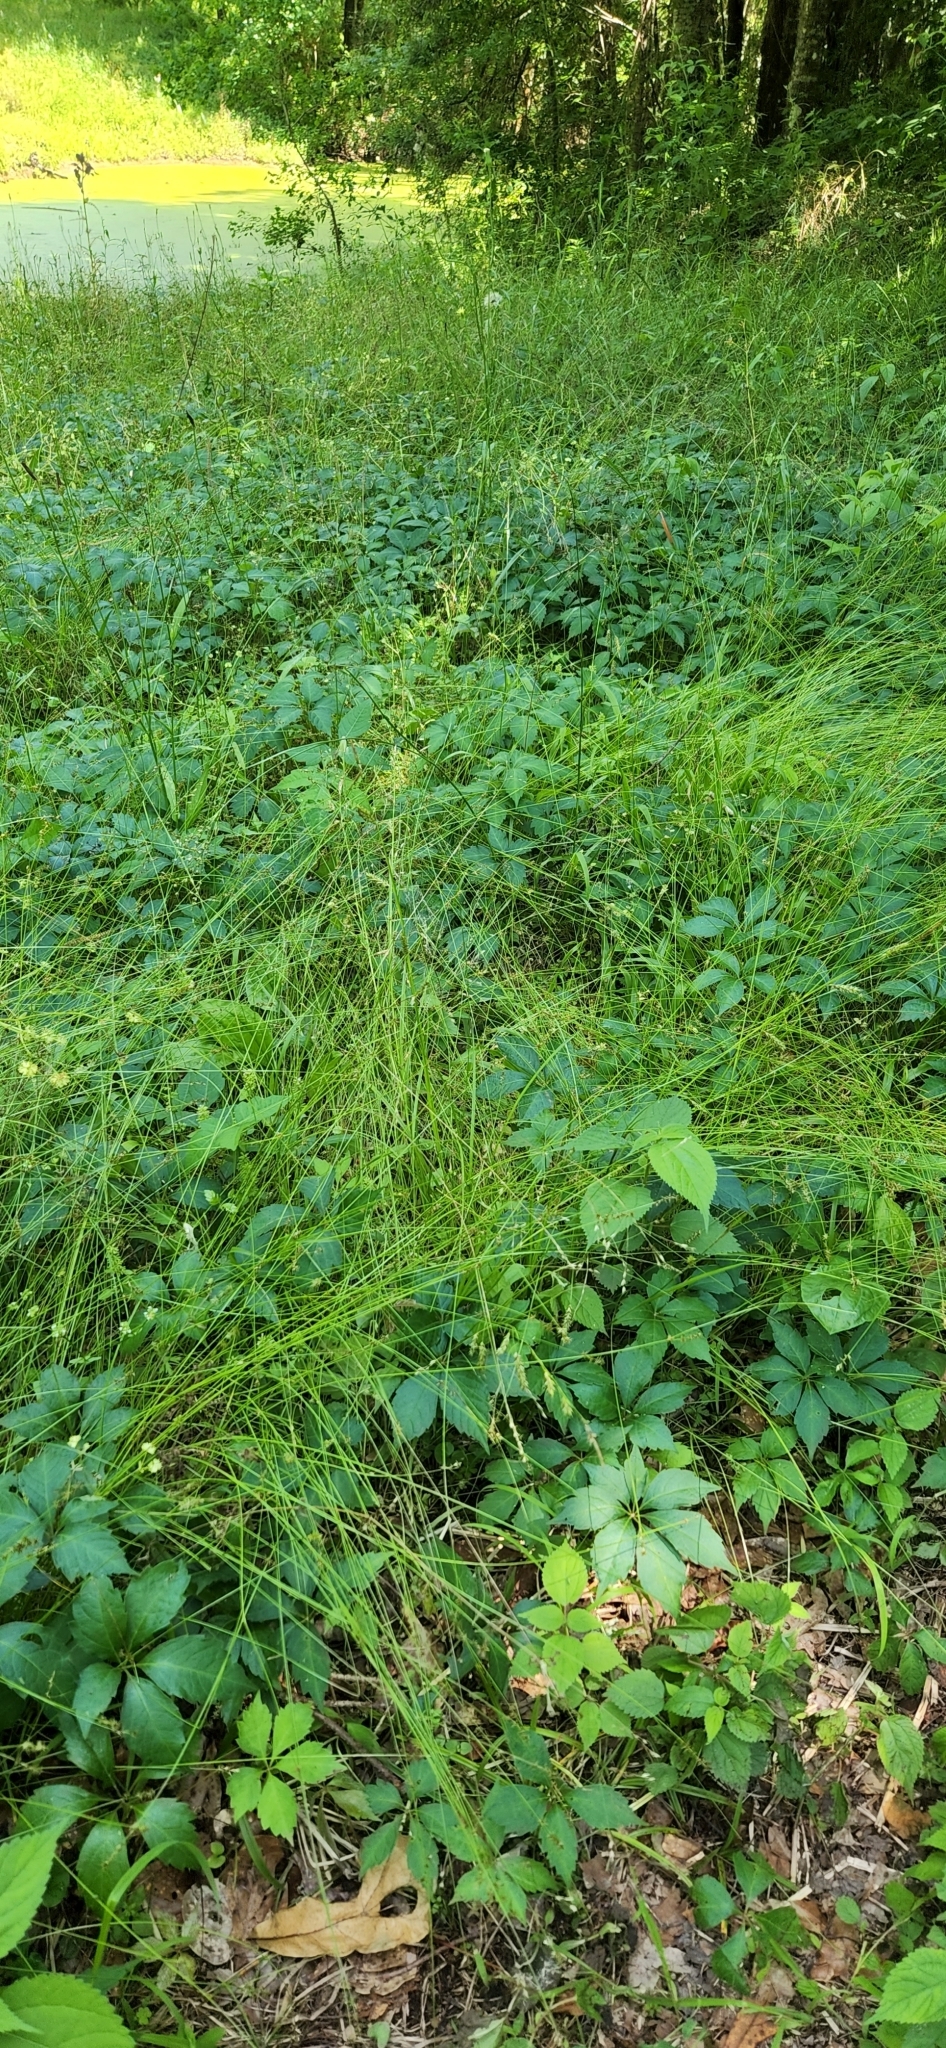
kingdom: Plantae
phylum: Tracheophyta
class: Magnoliopsida
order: Vitales
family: Vitaceae
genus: Parthenocissus
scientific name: Parthenocissus quinquefolia
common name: Virginia-creeper
